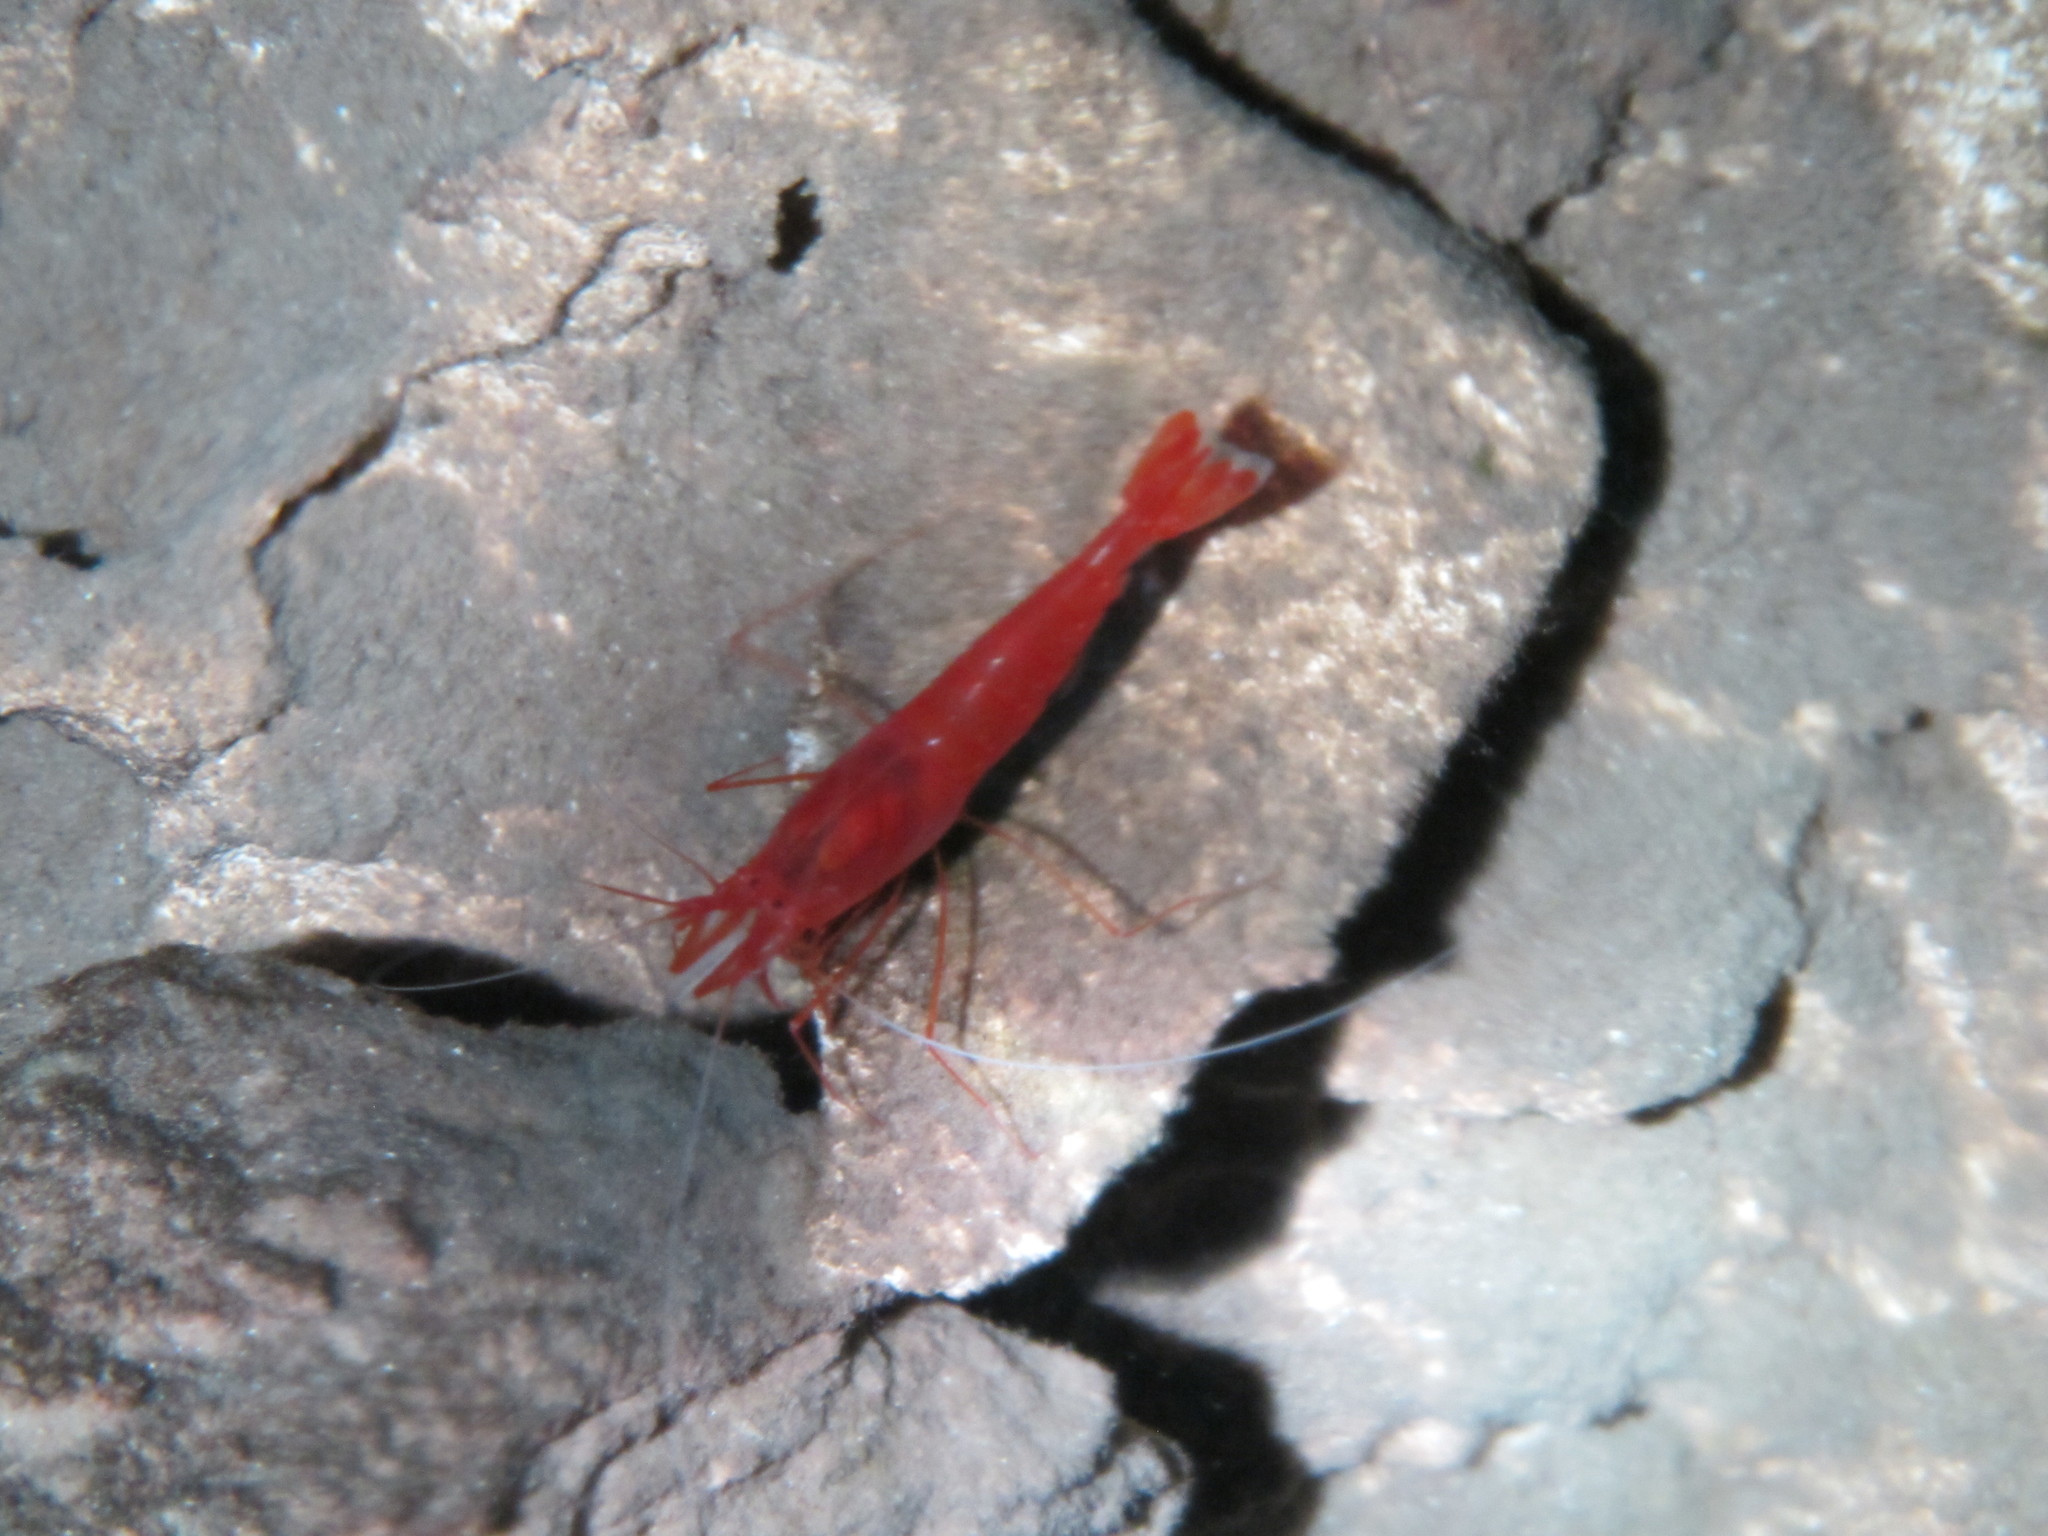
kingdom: Animalia
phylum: Arthropoda
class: Malacostraca
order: Decapoda
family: Barbouriidae
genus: Barbouria
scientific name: Barbouria cubensis
